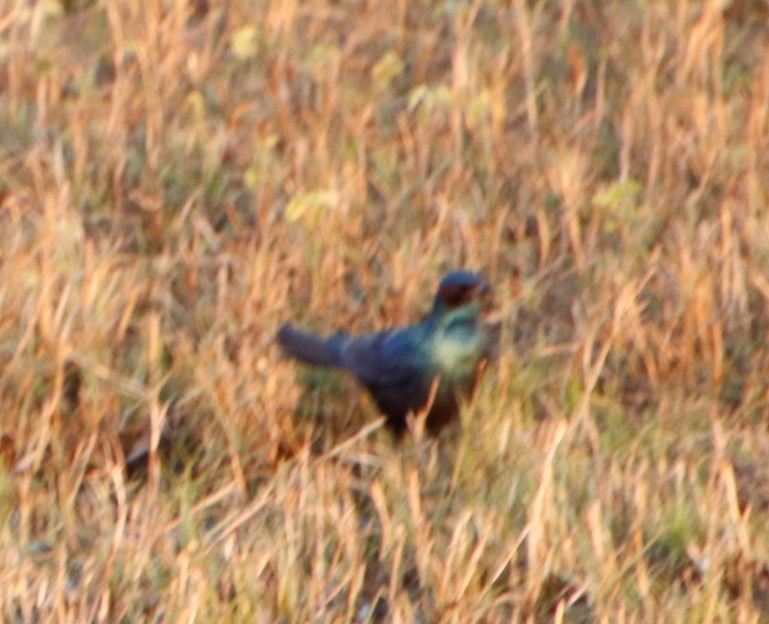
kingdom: Animalia
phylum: Chordata
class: Aves
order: Passeriformes
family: Sturnidae
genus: Lamprotornis
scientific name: Lamprotornis mevesii
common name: Meves's starling
